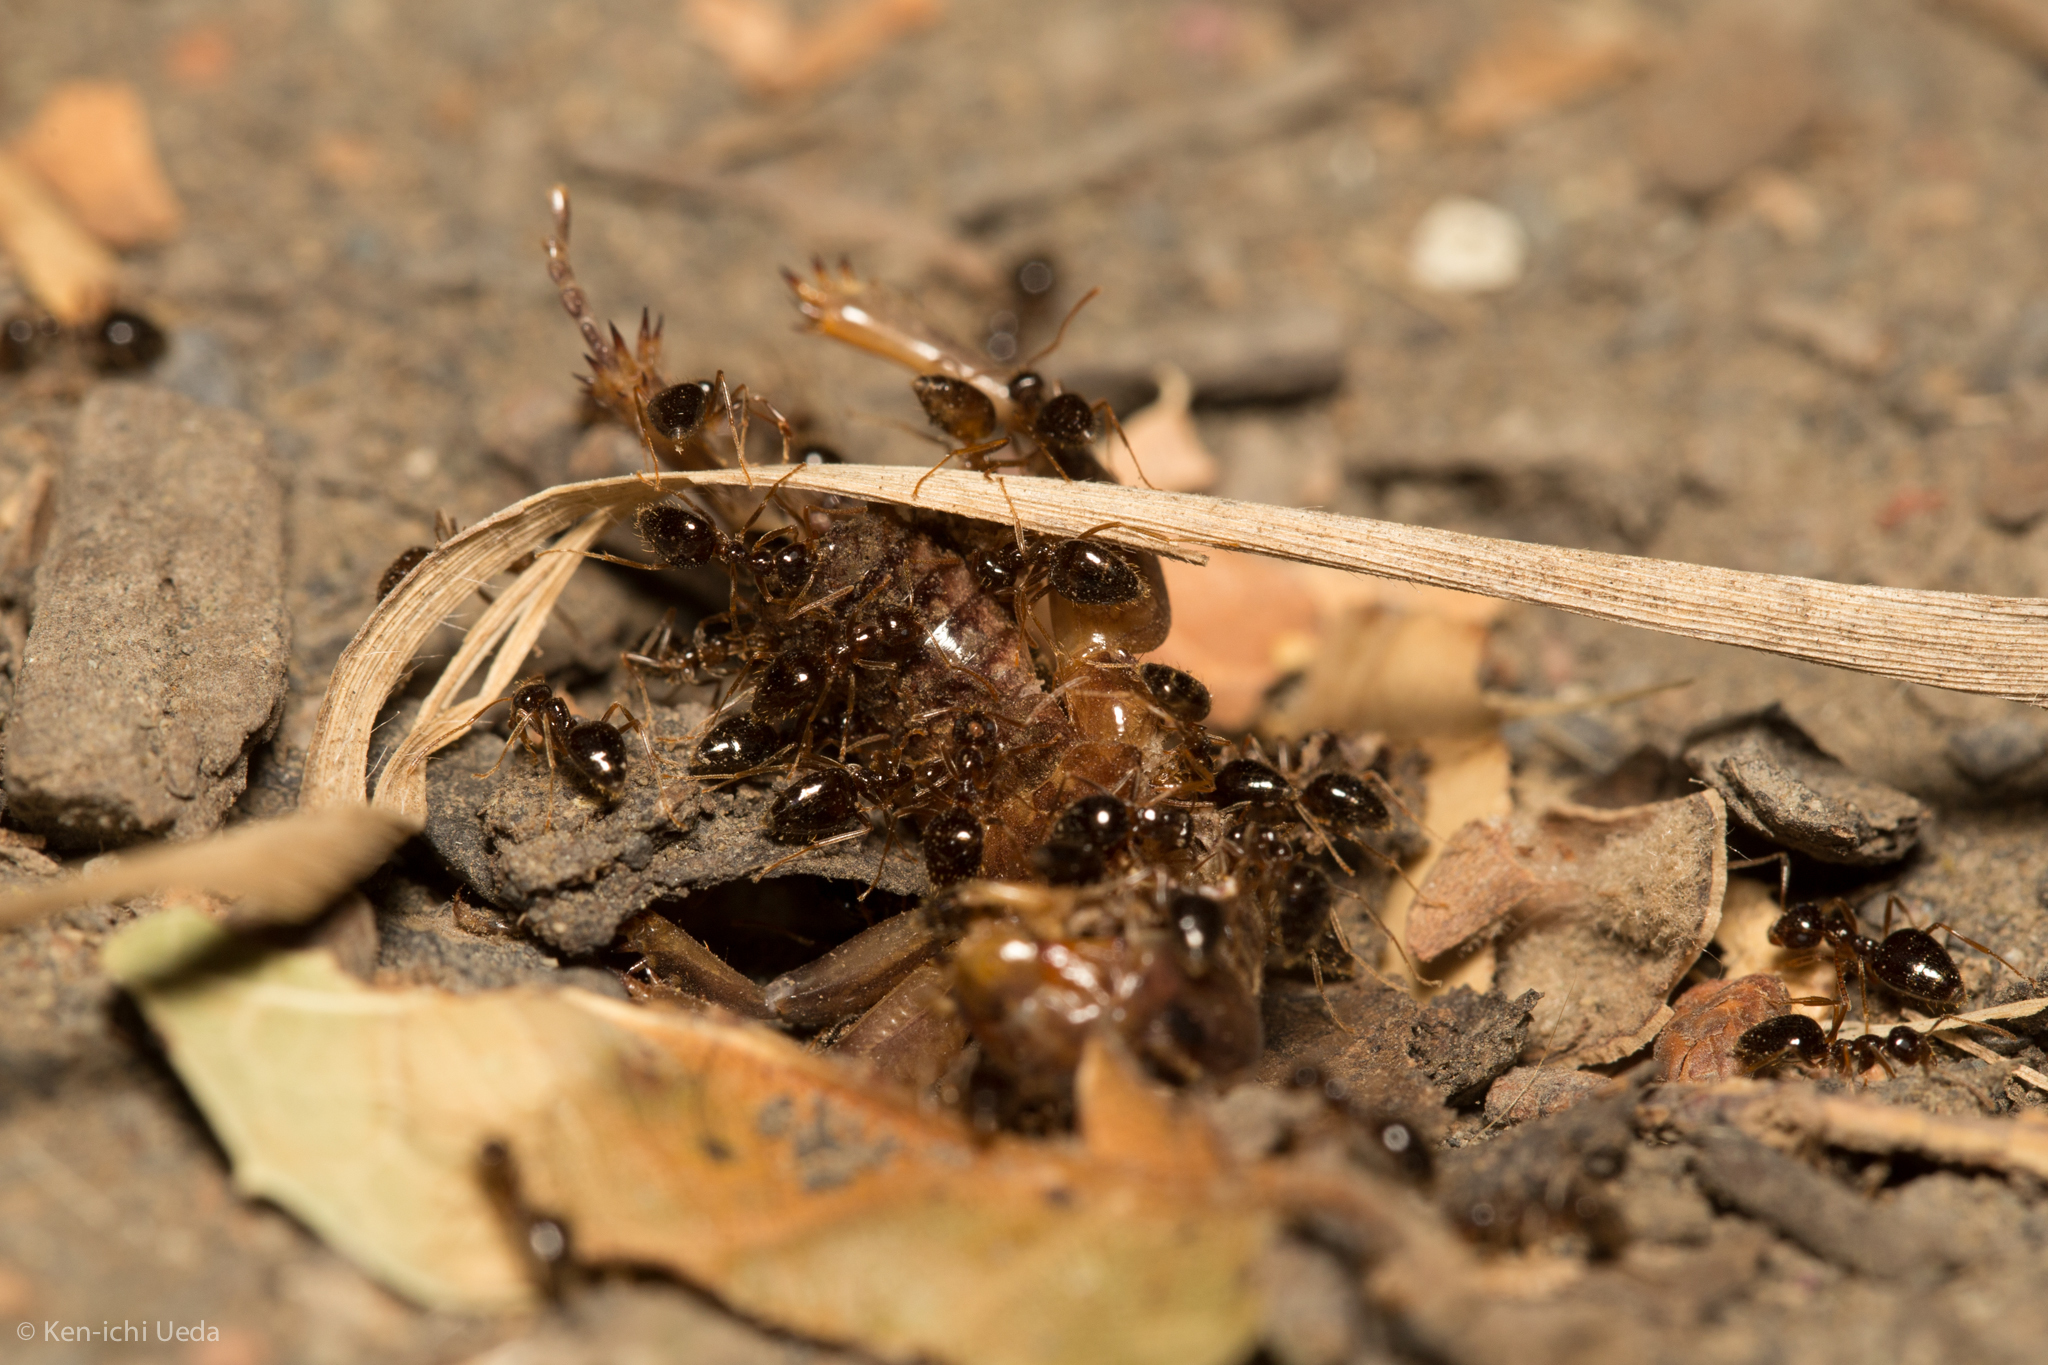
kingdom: Animalia
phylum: Arthropoda
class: Insecta
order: Hymenoptera
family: Formicidae
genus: Prenolepis
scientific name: Prenolepis imparis
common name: Small honey ant
